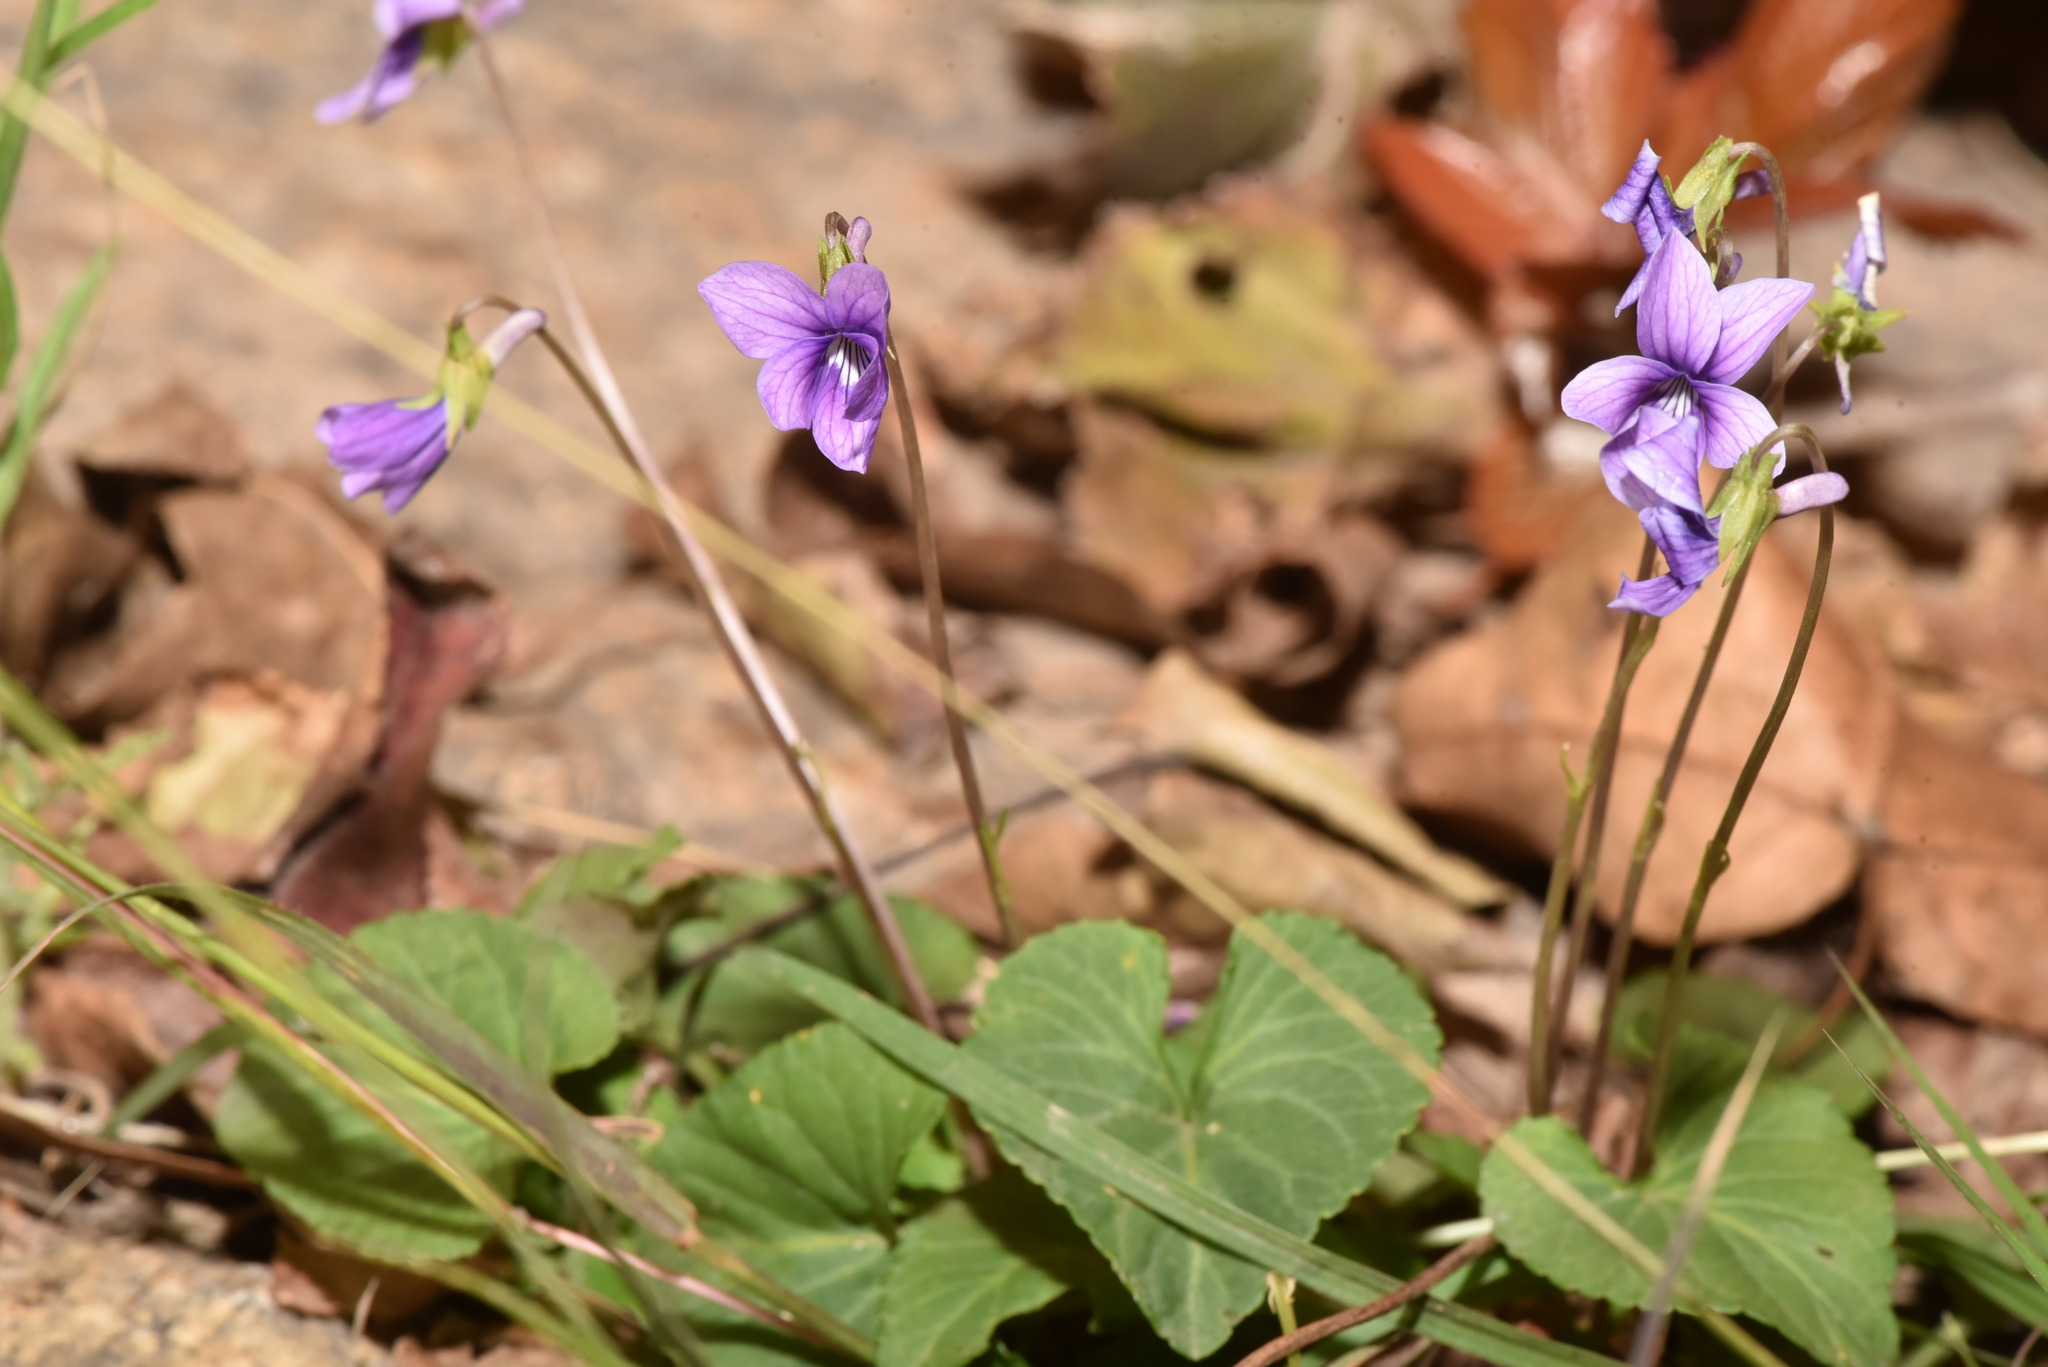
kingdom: Plantae
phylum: Tracheophyta
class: Magnoliopsida
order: Malpighiales
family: Violaceae
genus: Viola
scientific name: Viola
